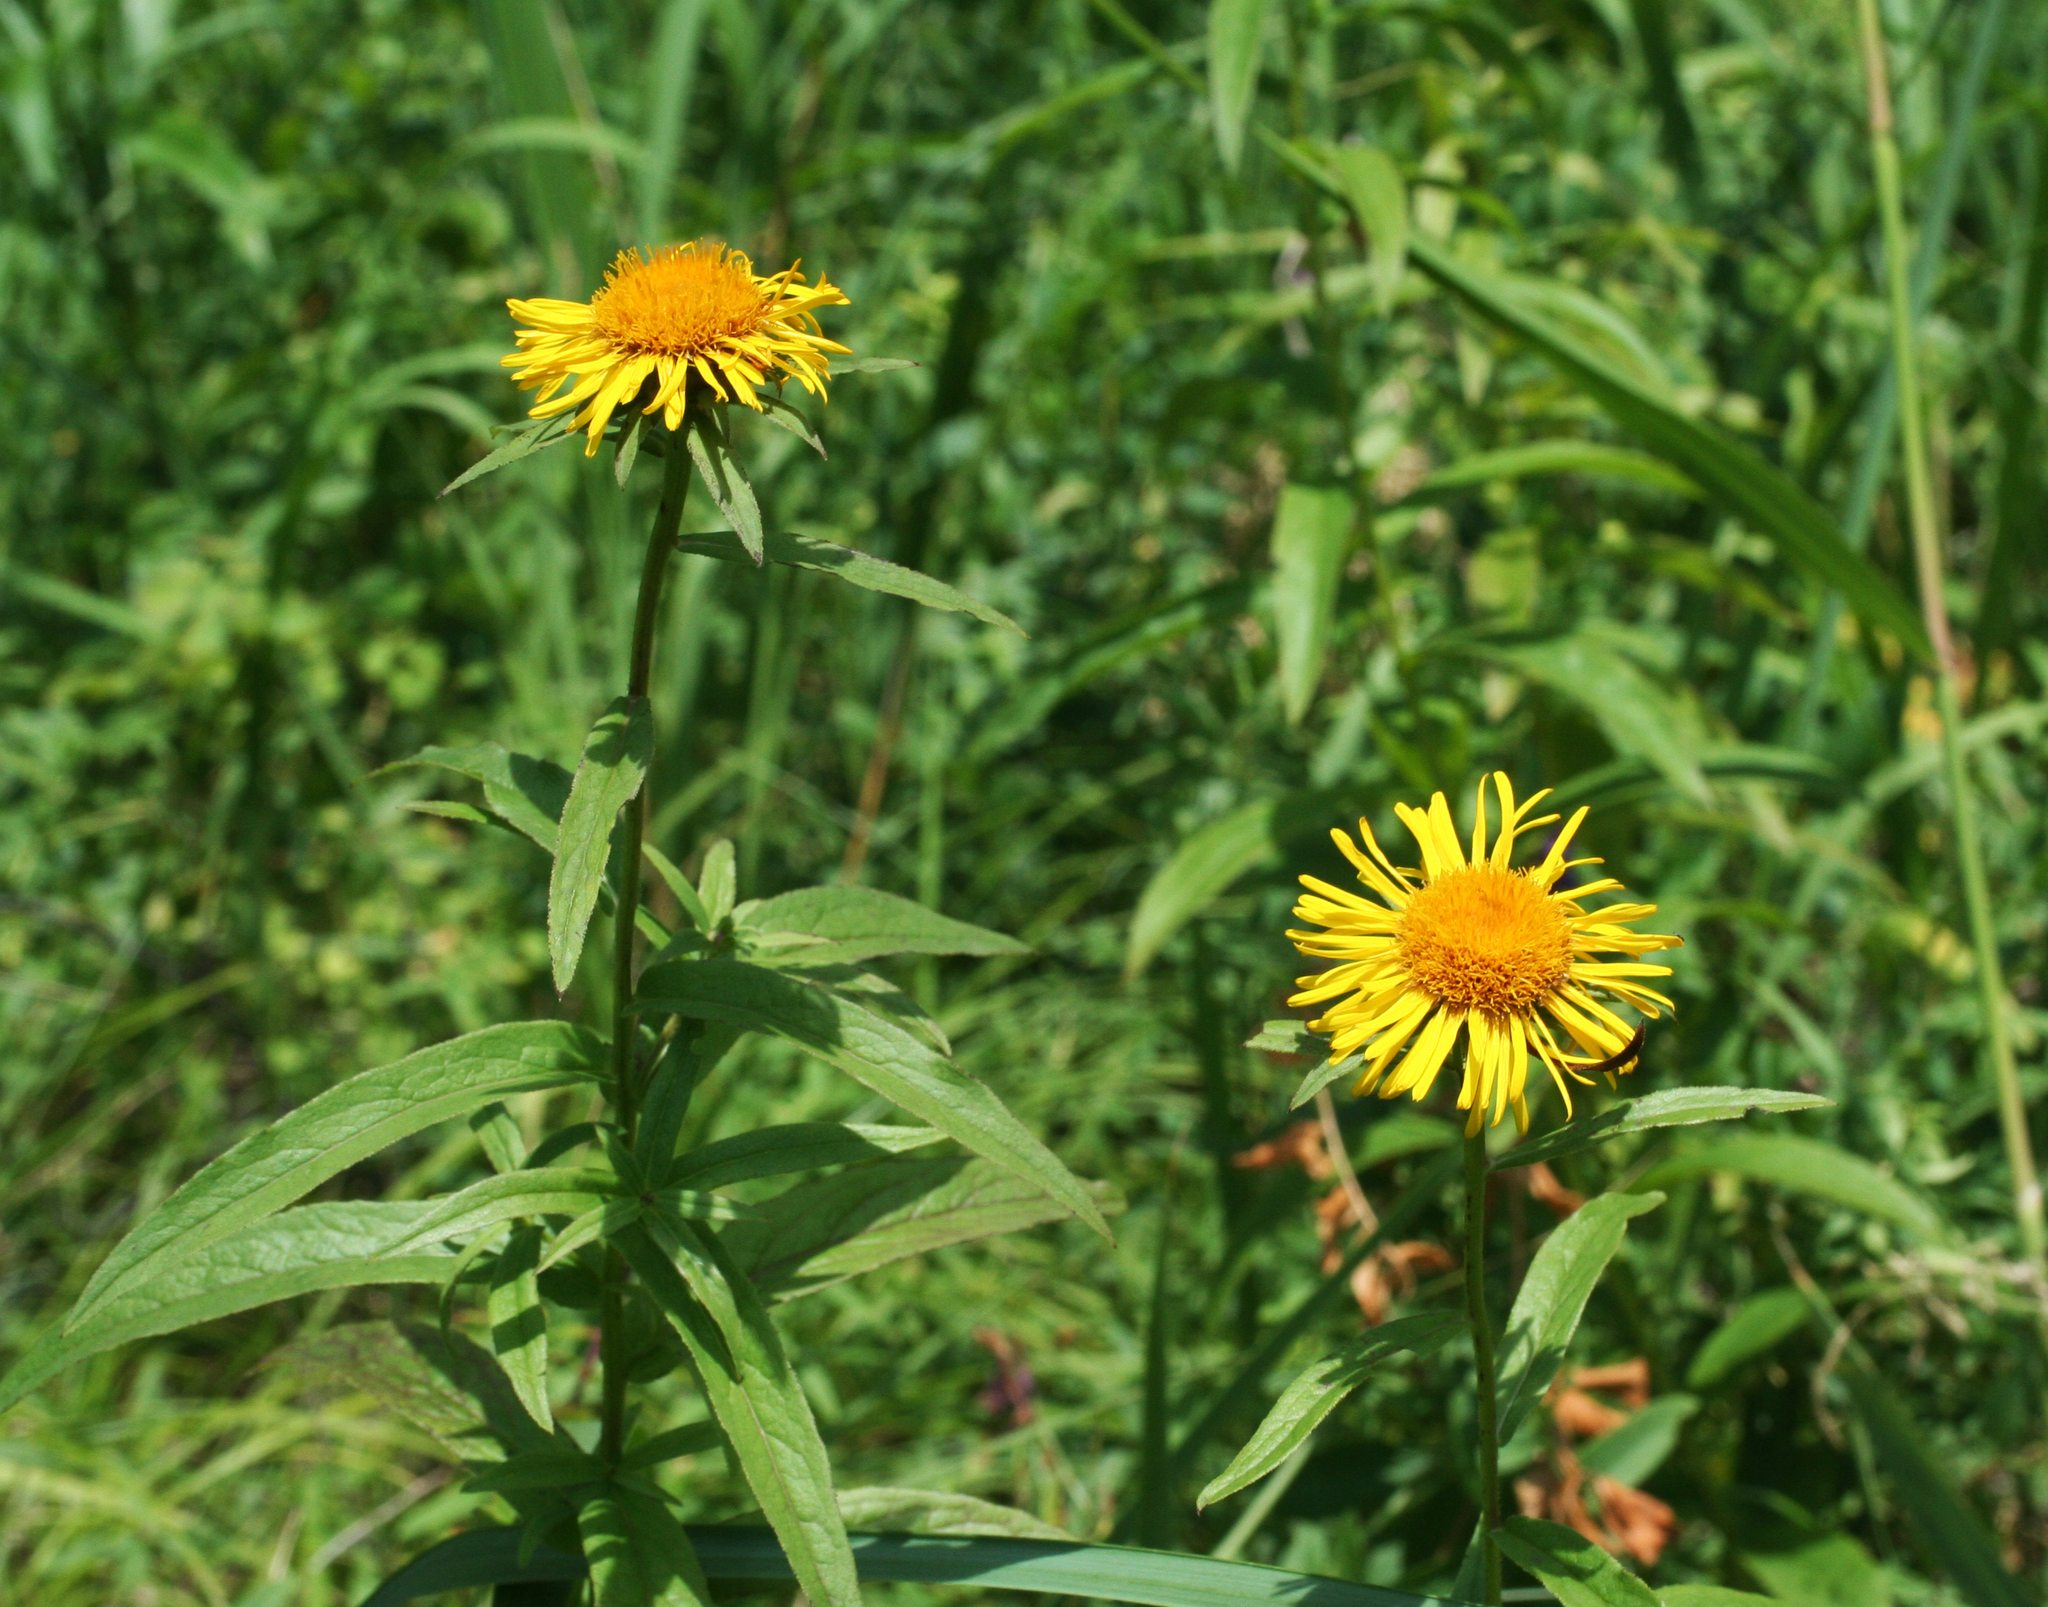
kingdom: Plantae
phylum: Tracheophyta
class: Magnoliopsida
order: Asterales
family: Asteraceae
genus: Pentanema
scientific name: Pentanema salicinum
